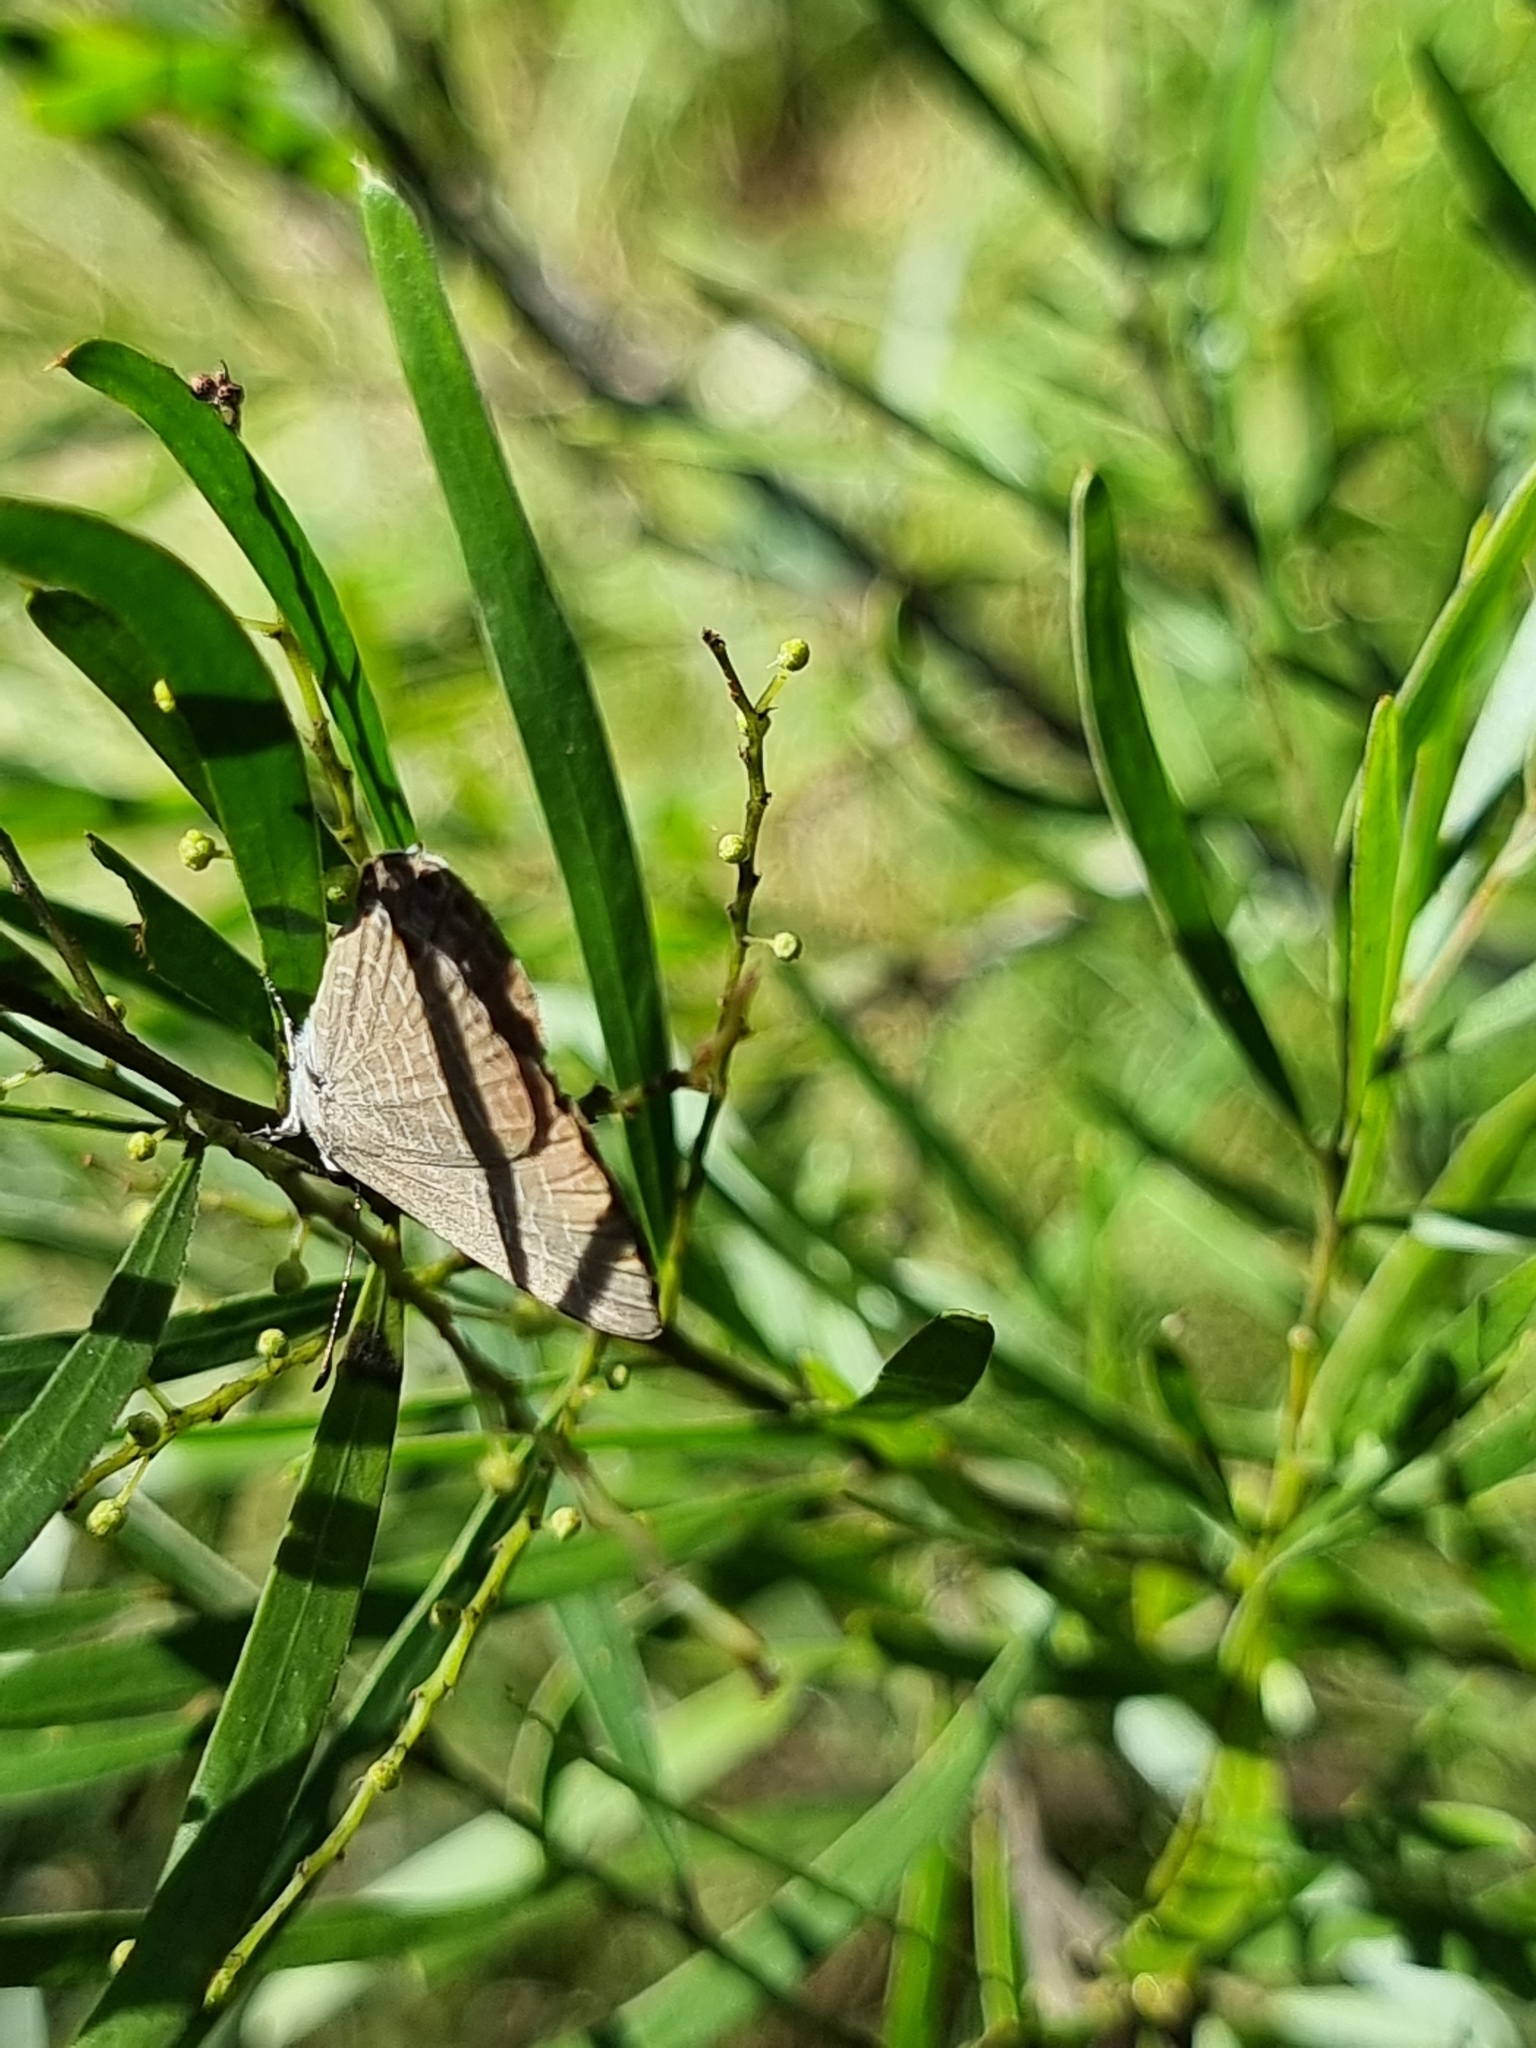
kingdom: Animalia
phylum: Arthropoda
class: Insecta
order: Lepidoptera
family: Lycaenidae
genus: Jamides
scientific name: Jamides phaseli
